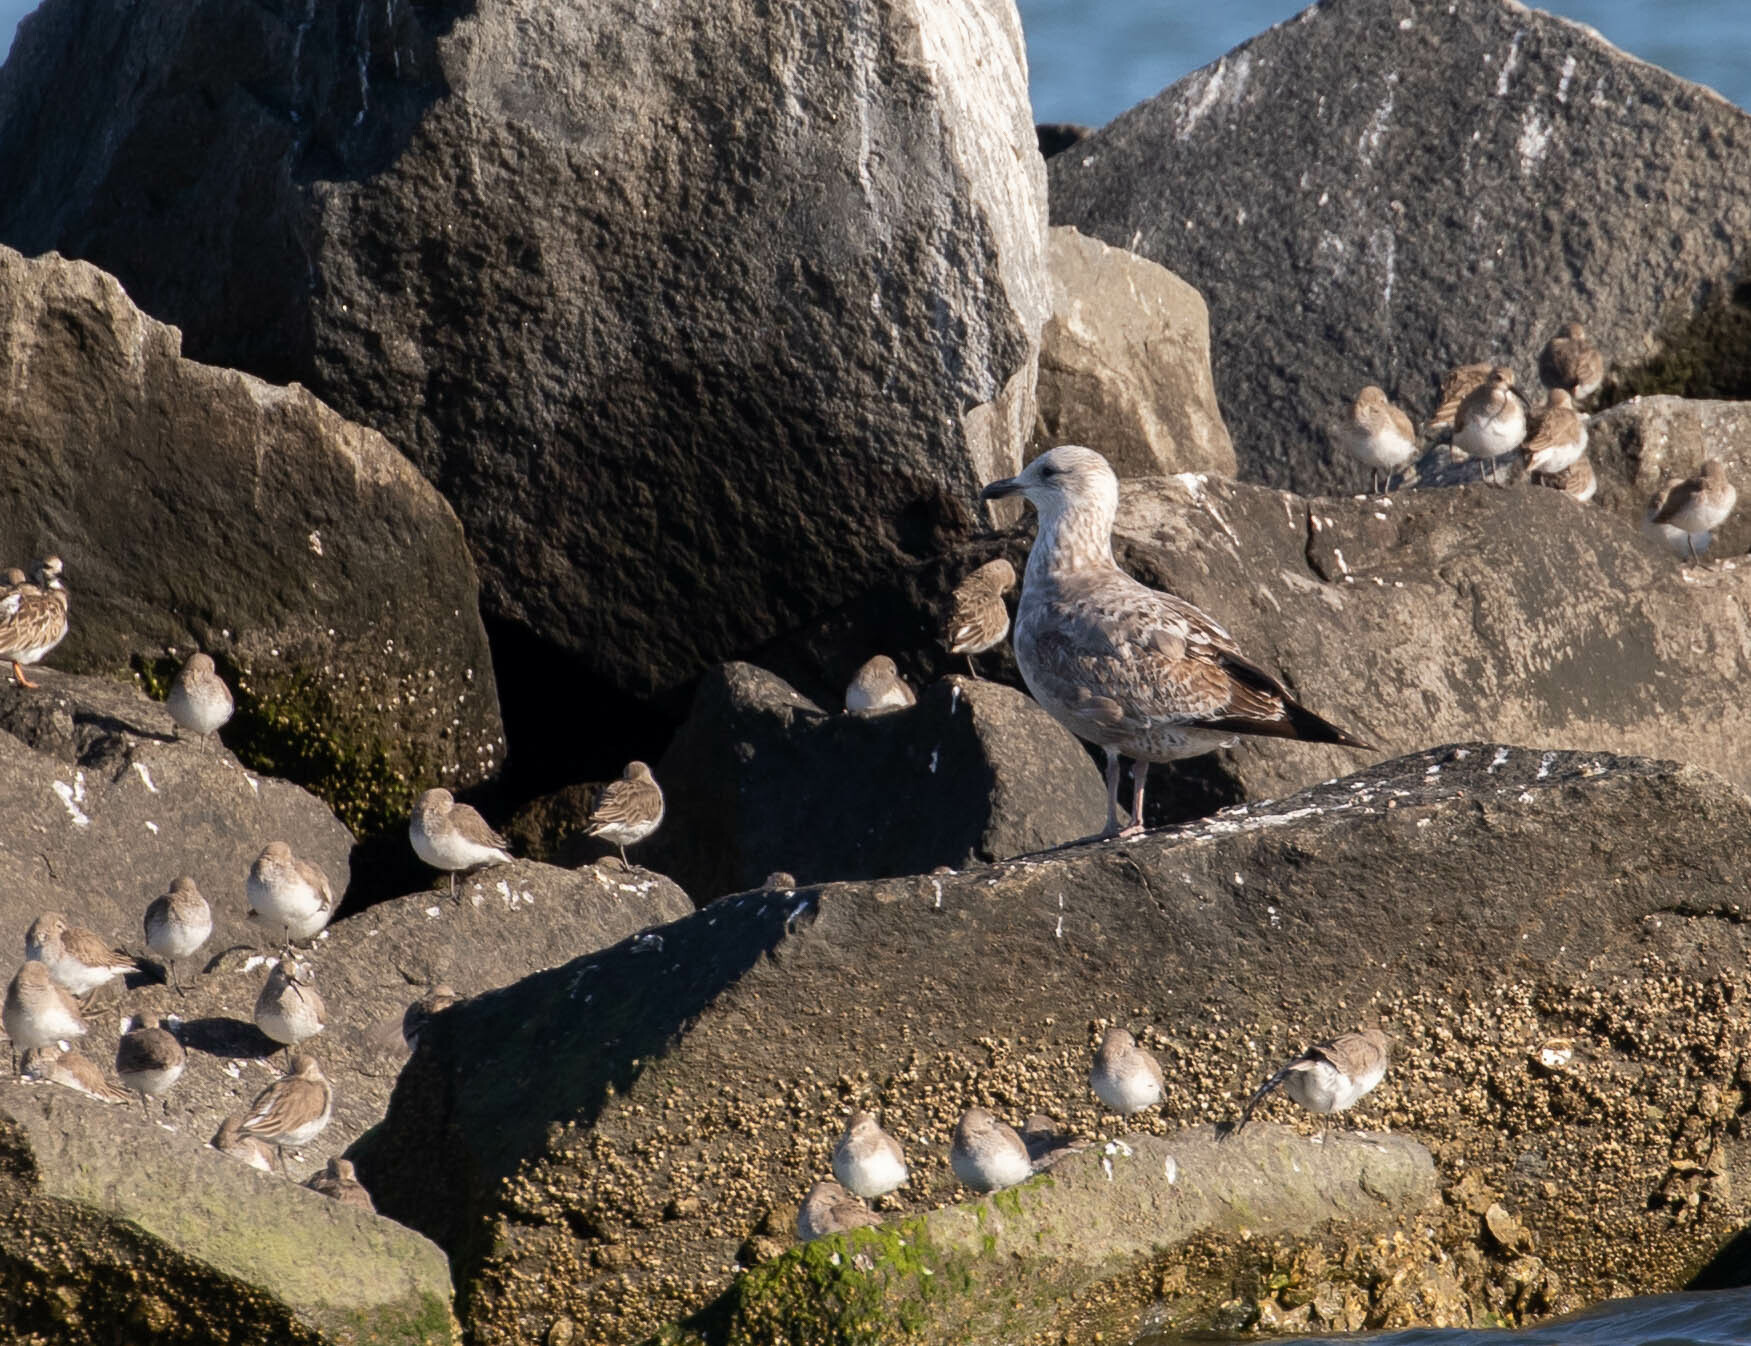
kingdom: Animalia
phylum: Chordata
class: Aves
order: Charadriiformes
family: Laridae
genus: Larus
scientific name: Larus argentatus
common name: Herring gull
